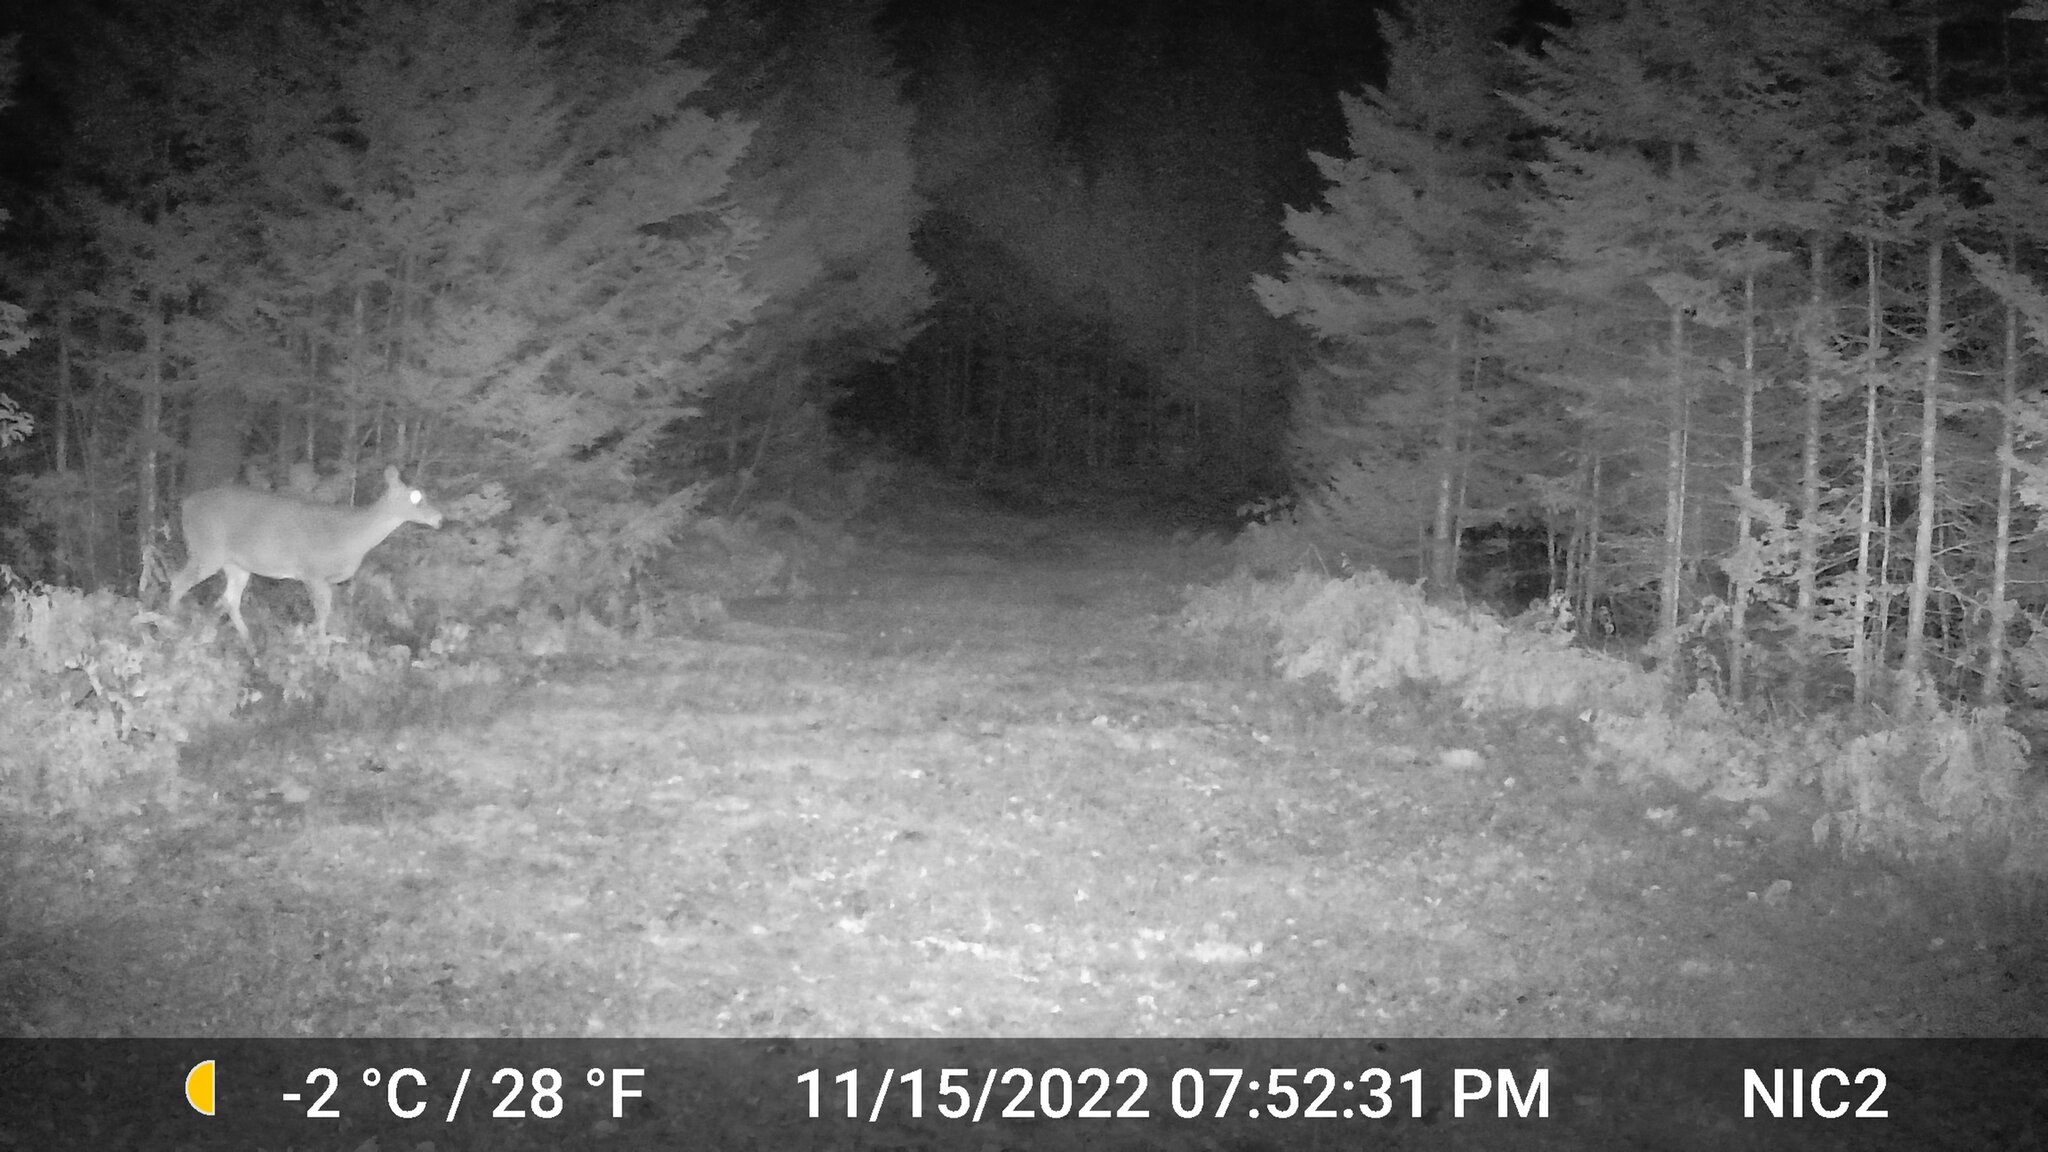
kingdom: Animalia
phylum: Chordata
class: Mammalia
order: Artiodactyla
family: Cervidae
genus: Odocoileus
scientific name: Odocoileus virginianus
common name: White-tailed deer
